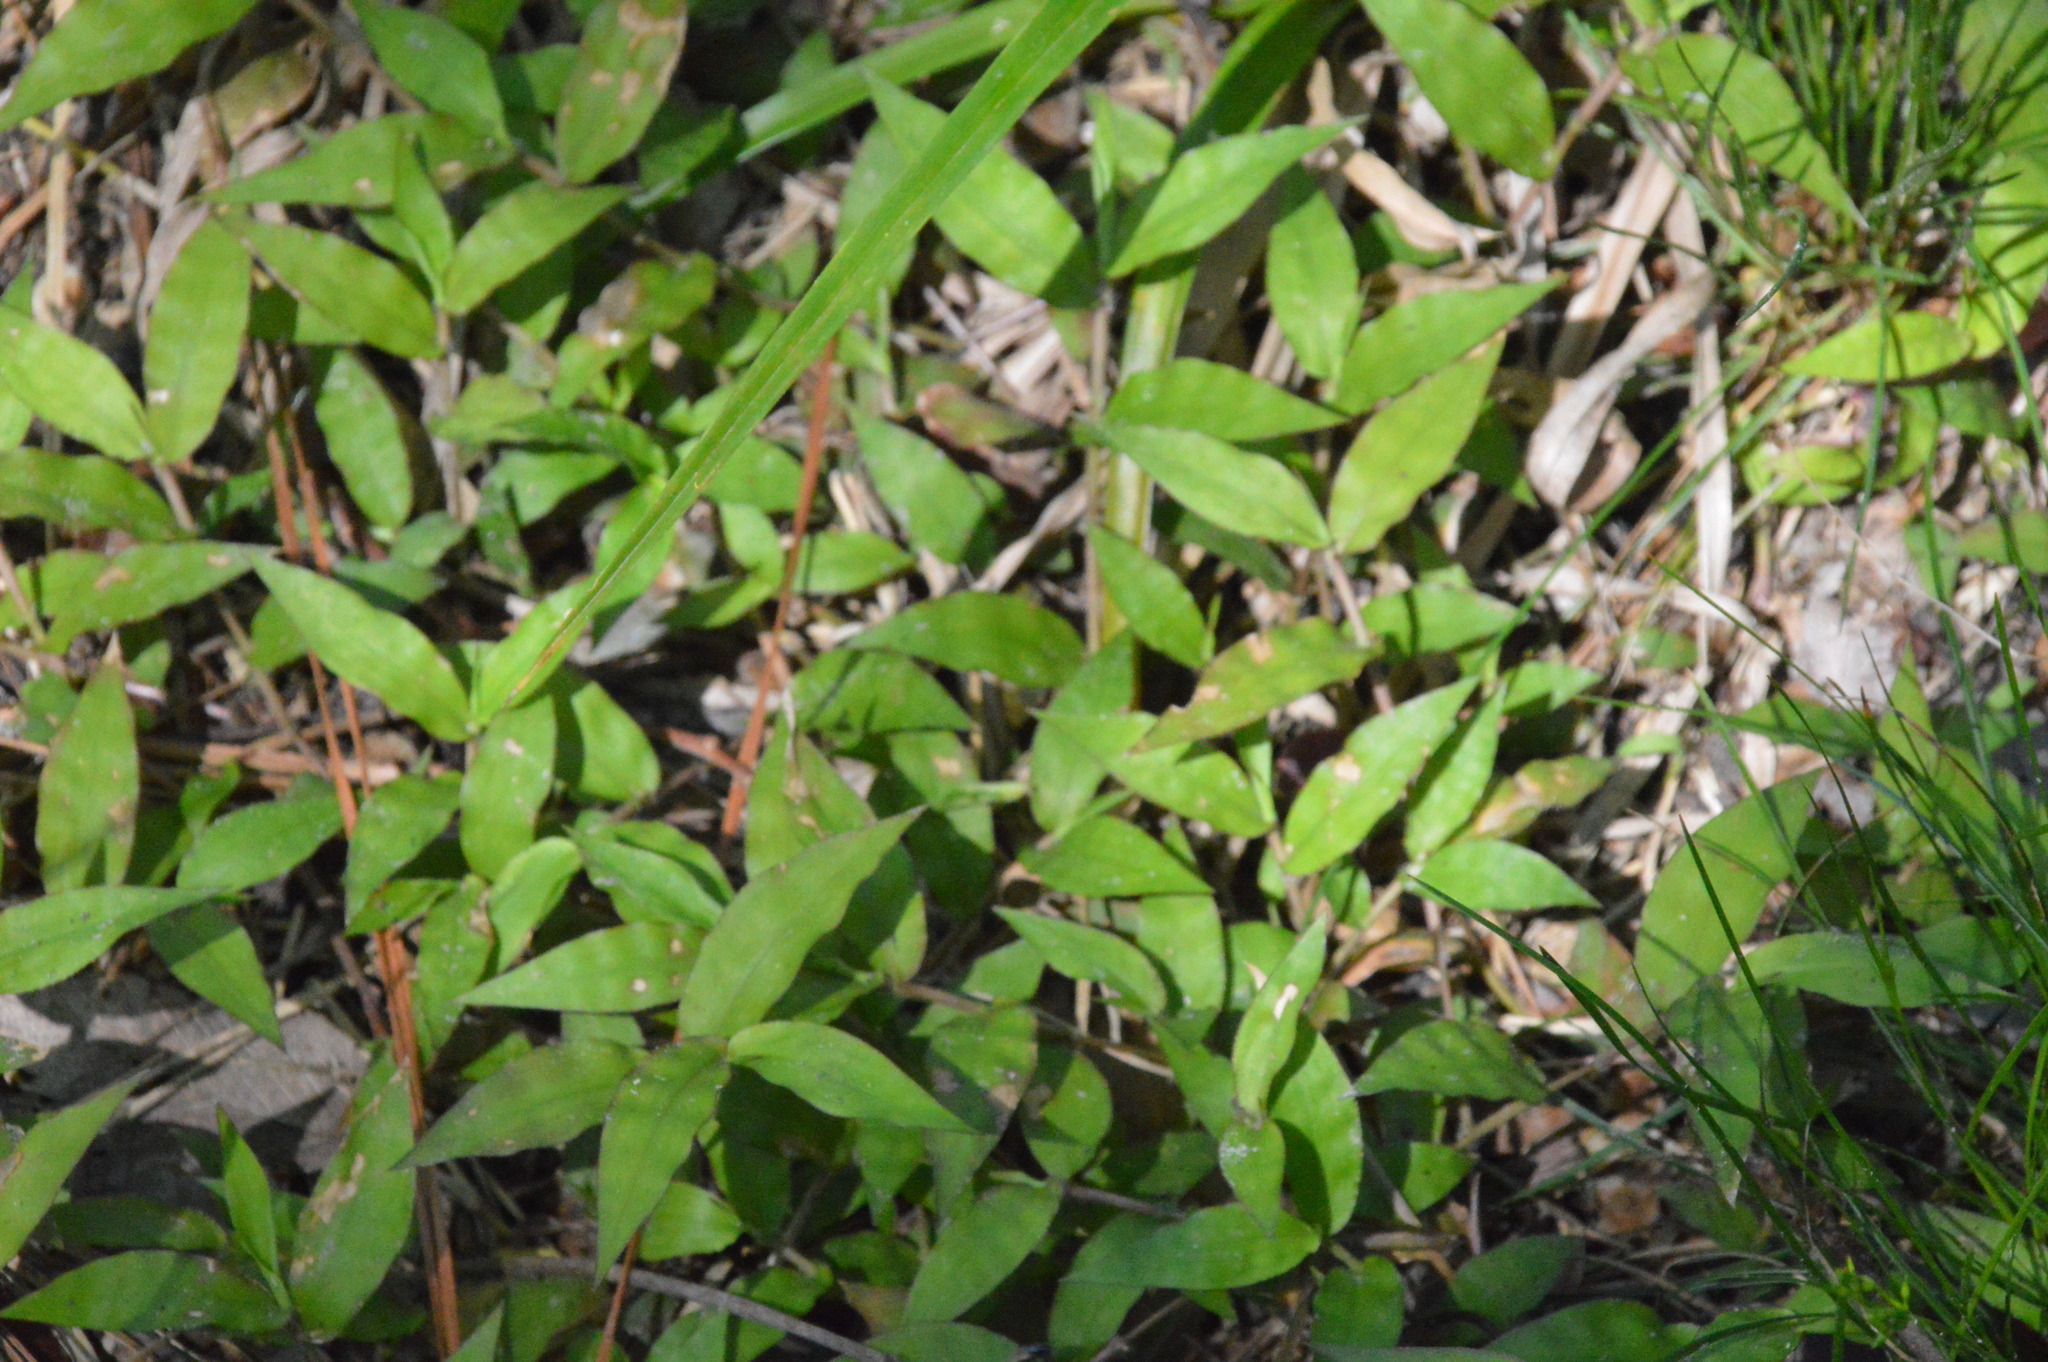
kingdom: Plantae
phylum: Tracheophyta
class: Liliopsida
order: Poales
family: Poaceae
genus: Oplismenus
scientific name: Oplismenus hirtellus
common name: Basketgrass
